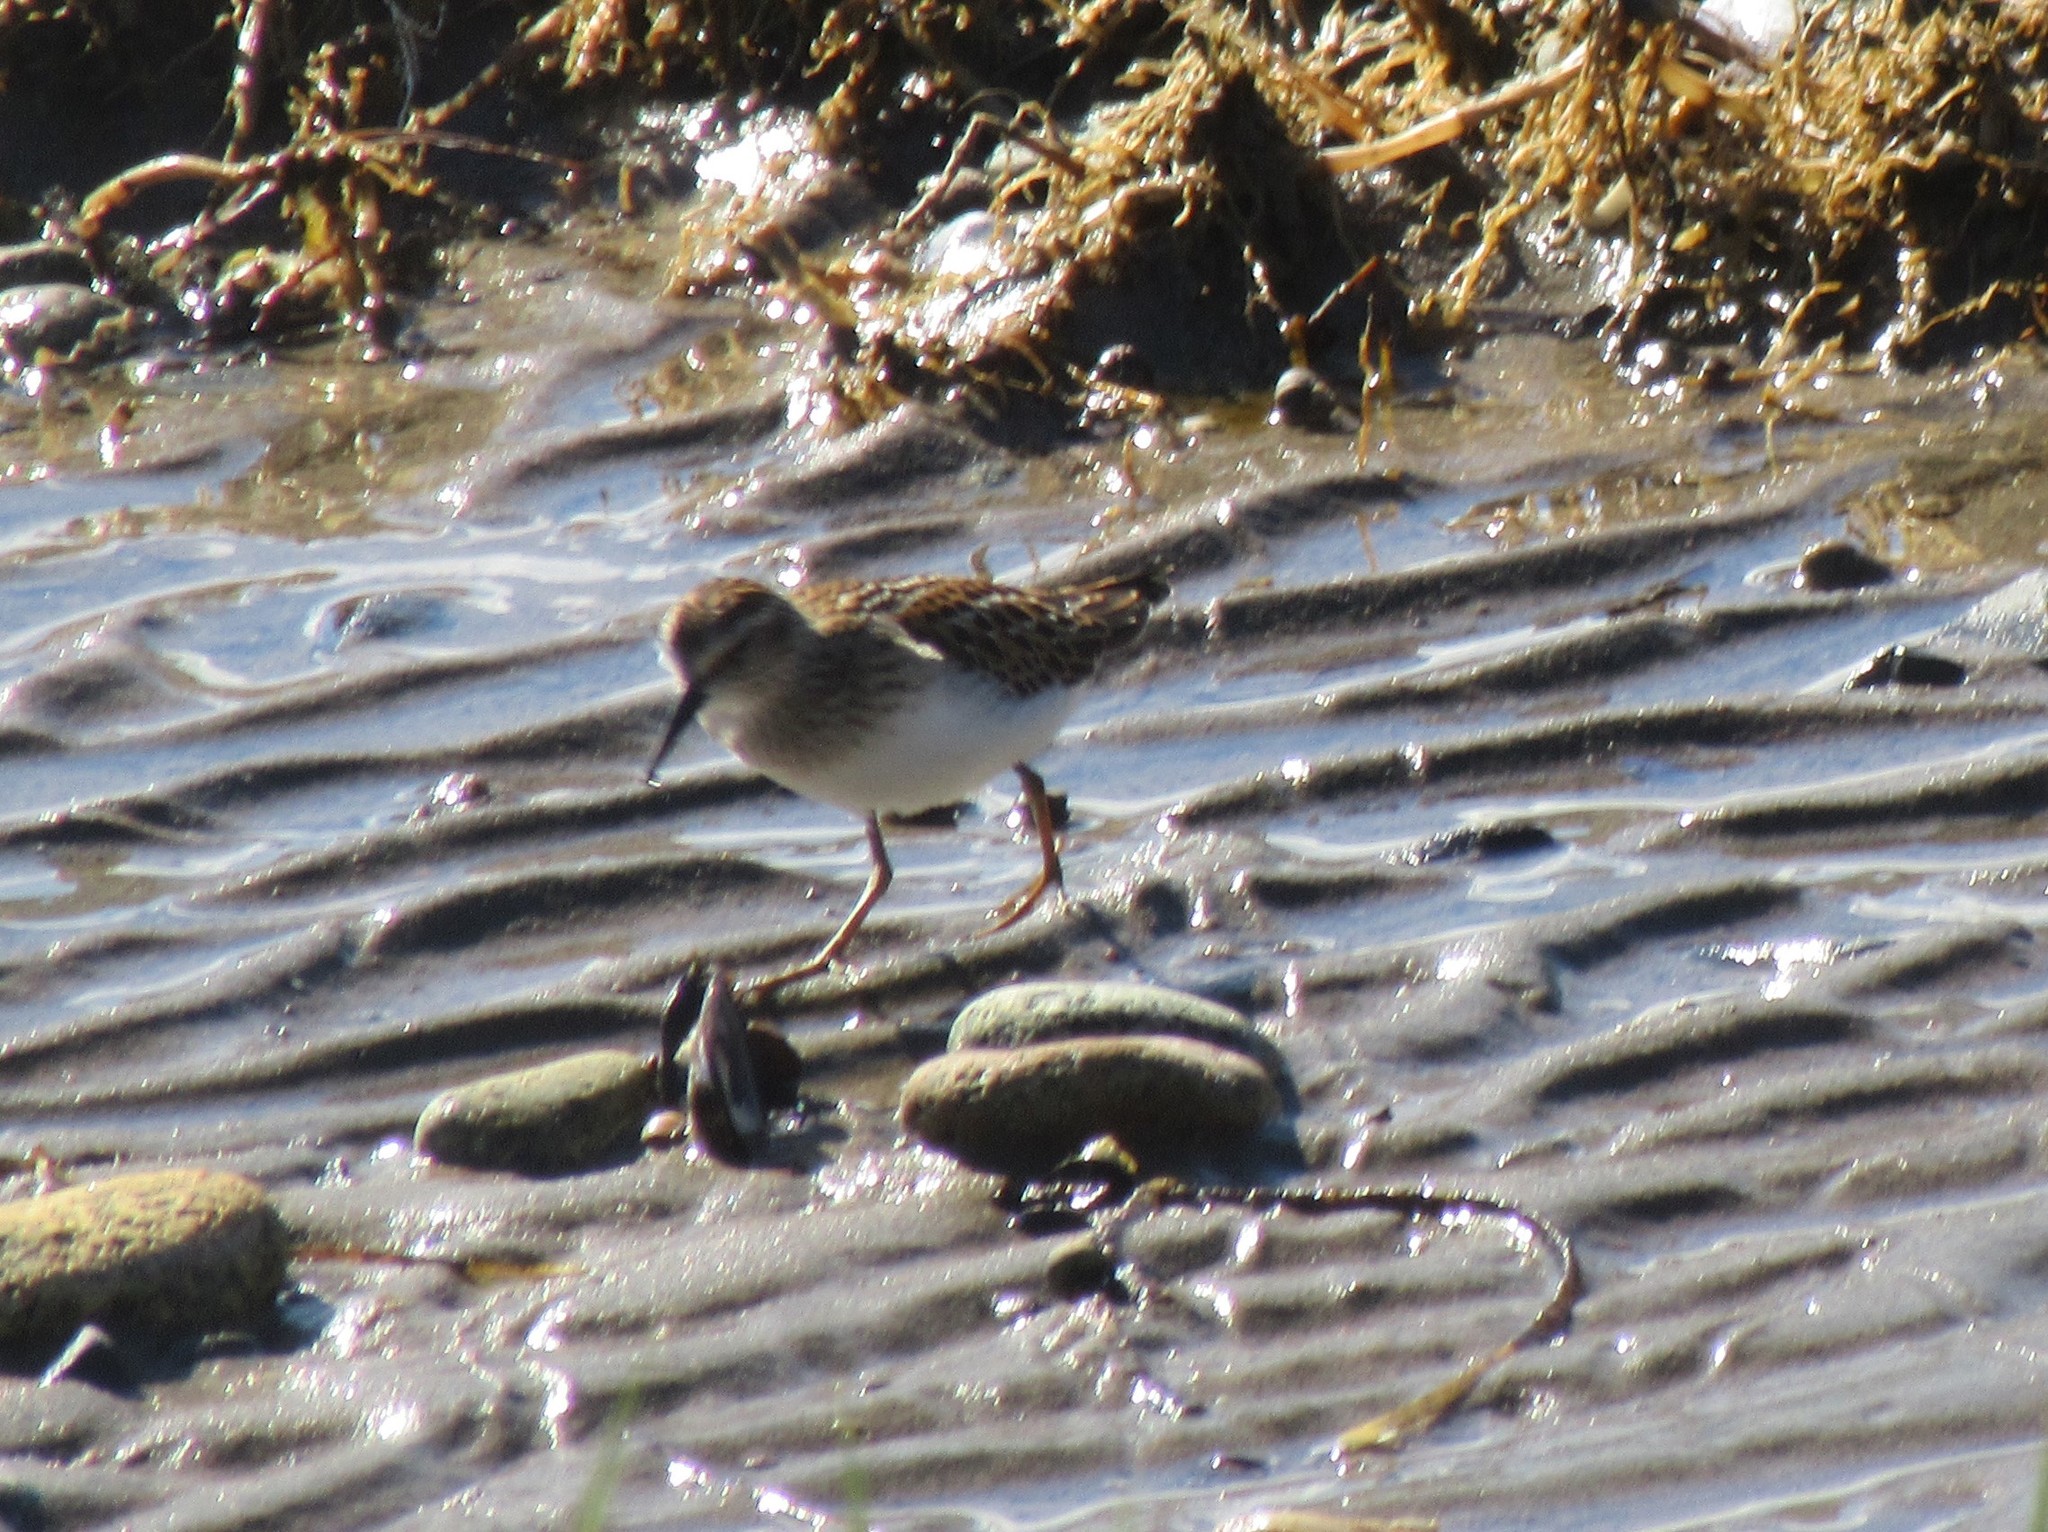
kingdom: Animalia
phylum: Chordata
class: Aves
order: Charadriiformes
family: Scolopacidae
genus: Calidris
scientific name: Calidris minutilla
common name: Least sandpiper
